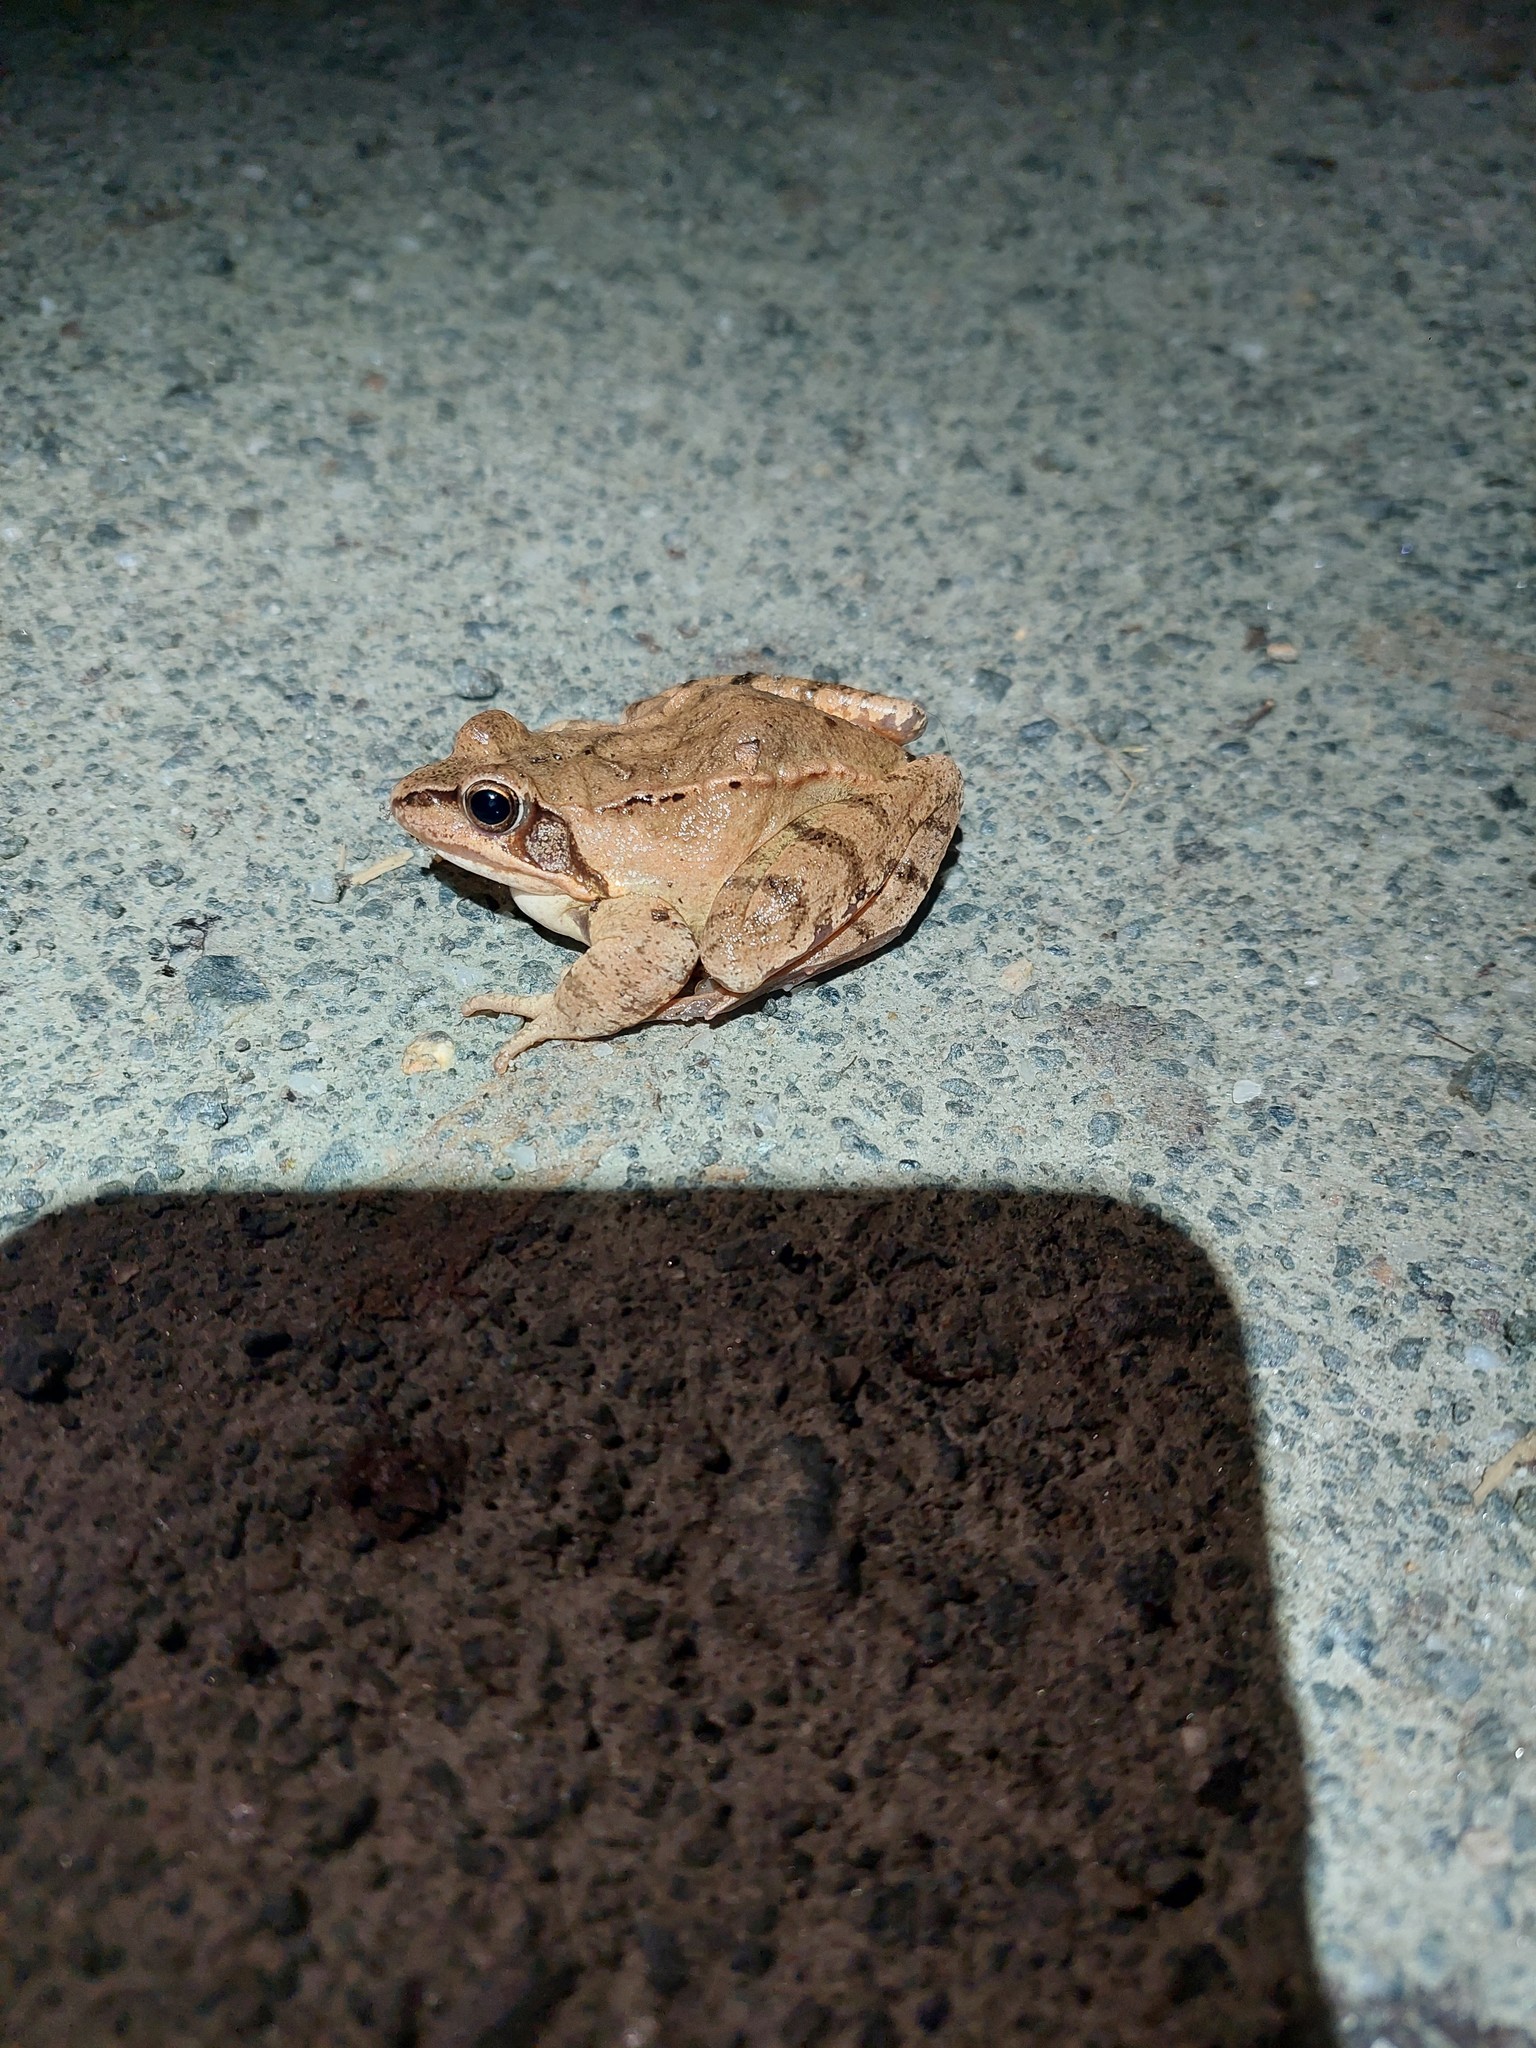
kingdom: Animalia
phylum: Chordata
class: Amphibia
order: Anura
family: Ranidae
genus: Rana
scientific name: Rana dalmatina
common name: Agile frog
